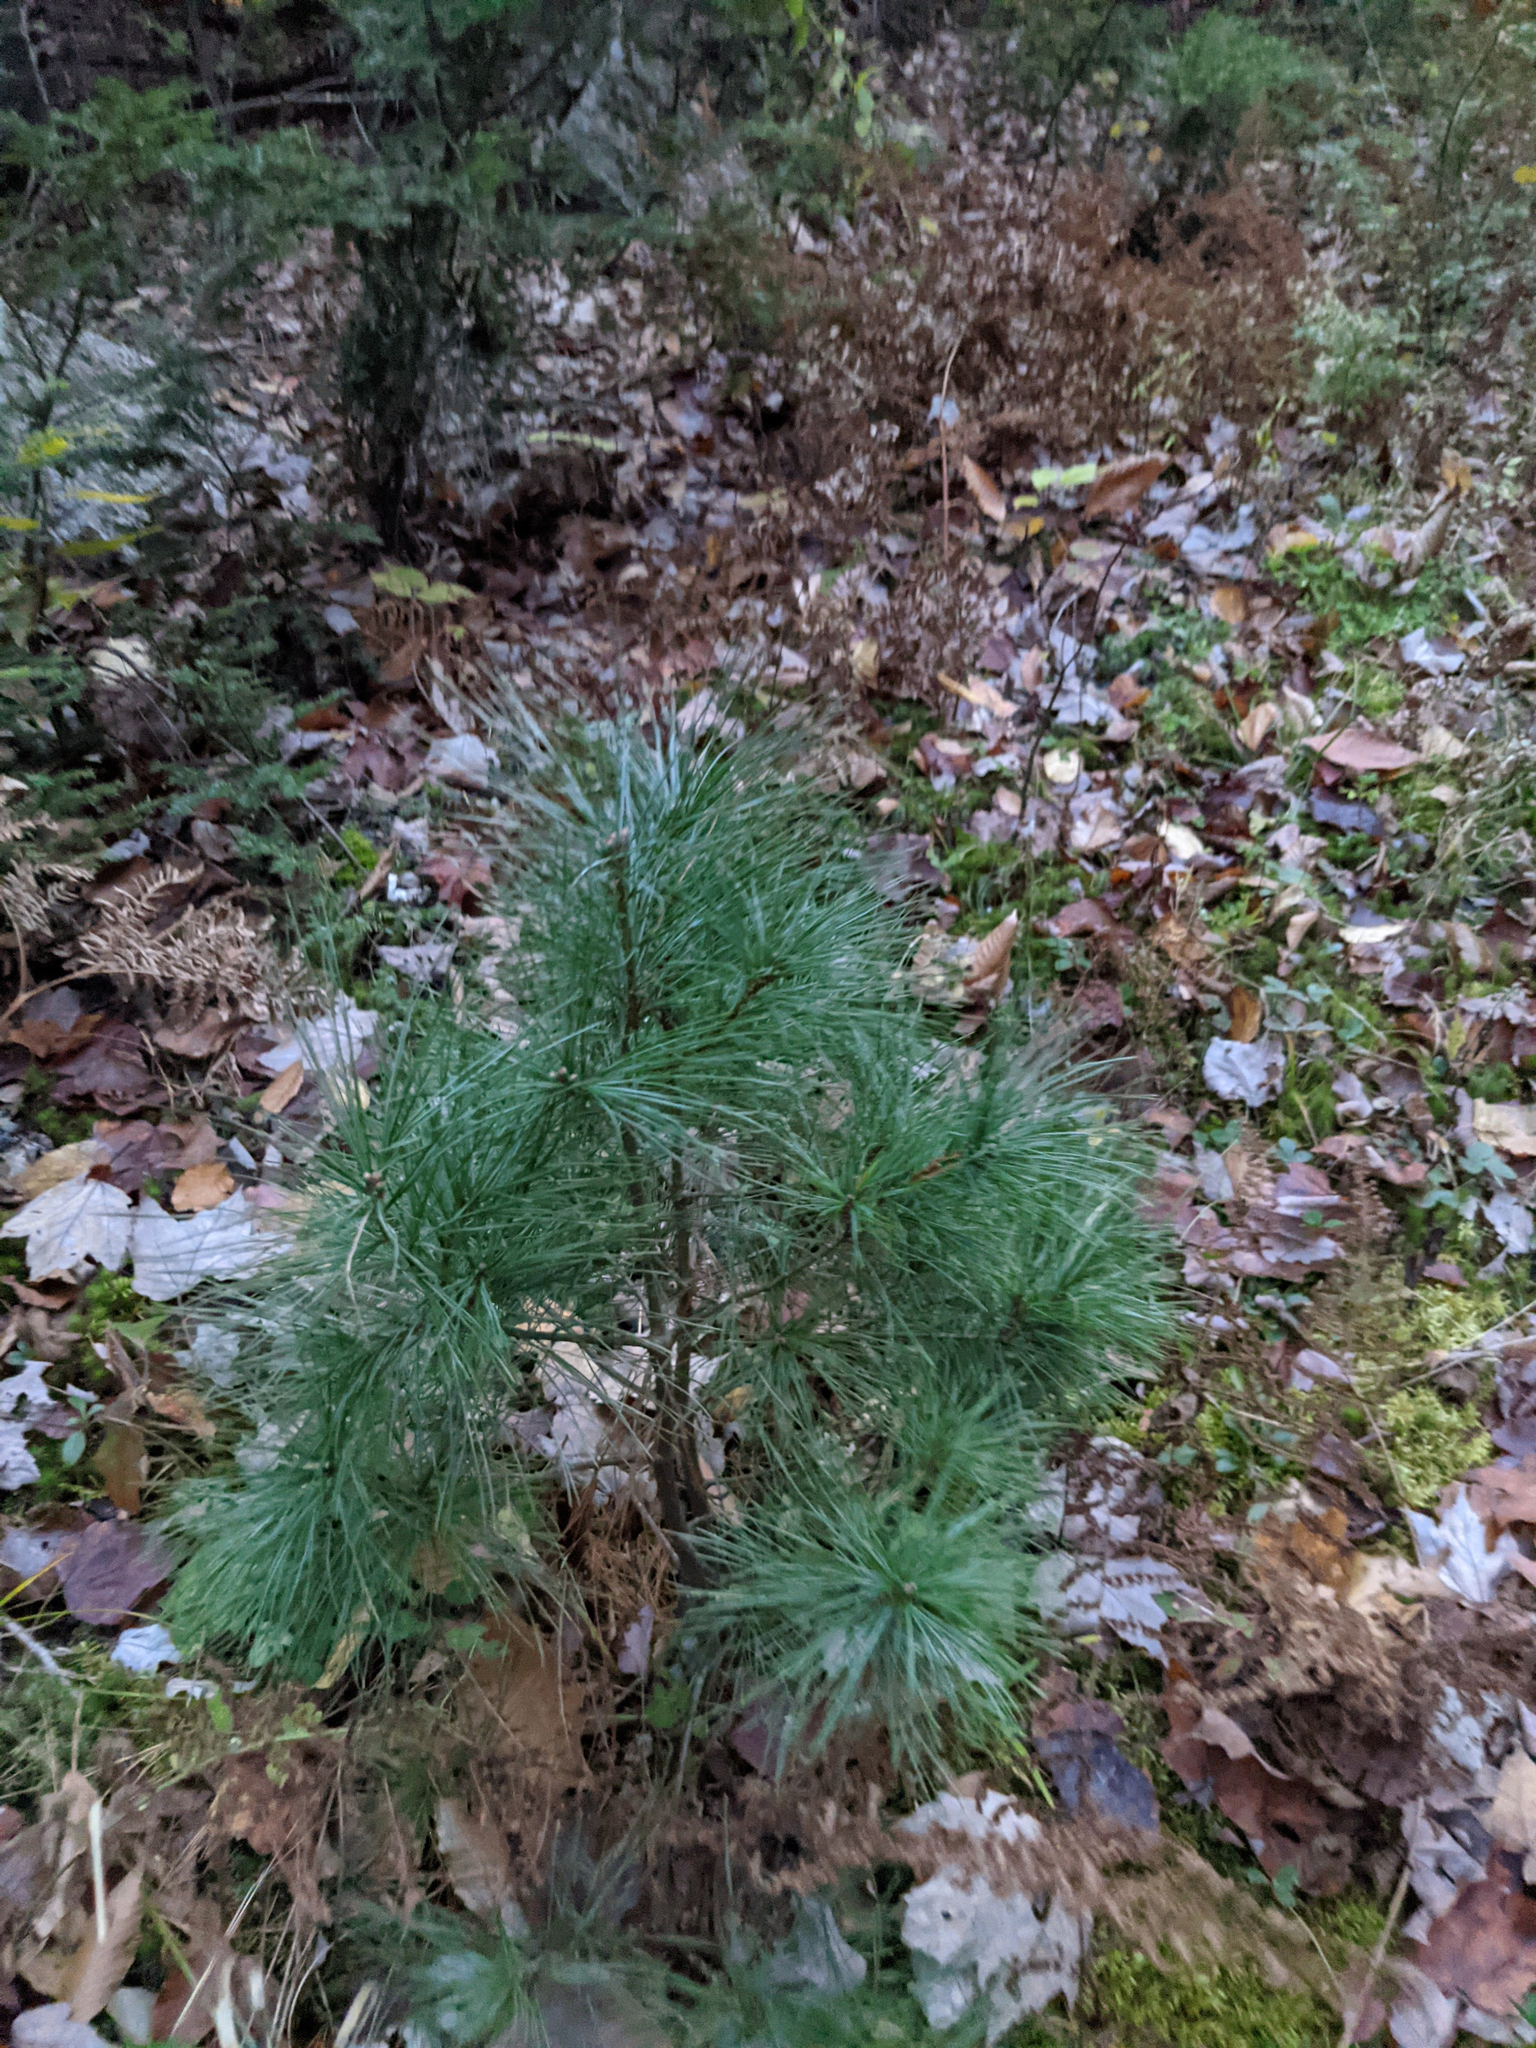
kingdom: Plantae
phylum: Tracheophyta
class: Pinopsida
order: Pinales
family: Pinaceae
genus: Pinus
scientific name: Pinus strobus
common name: Weymouth pine
